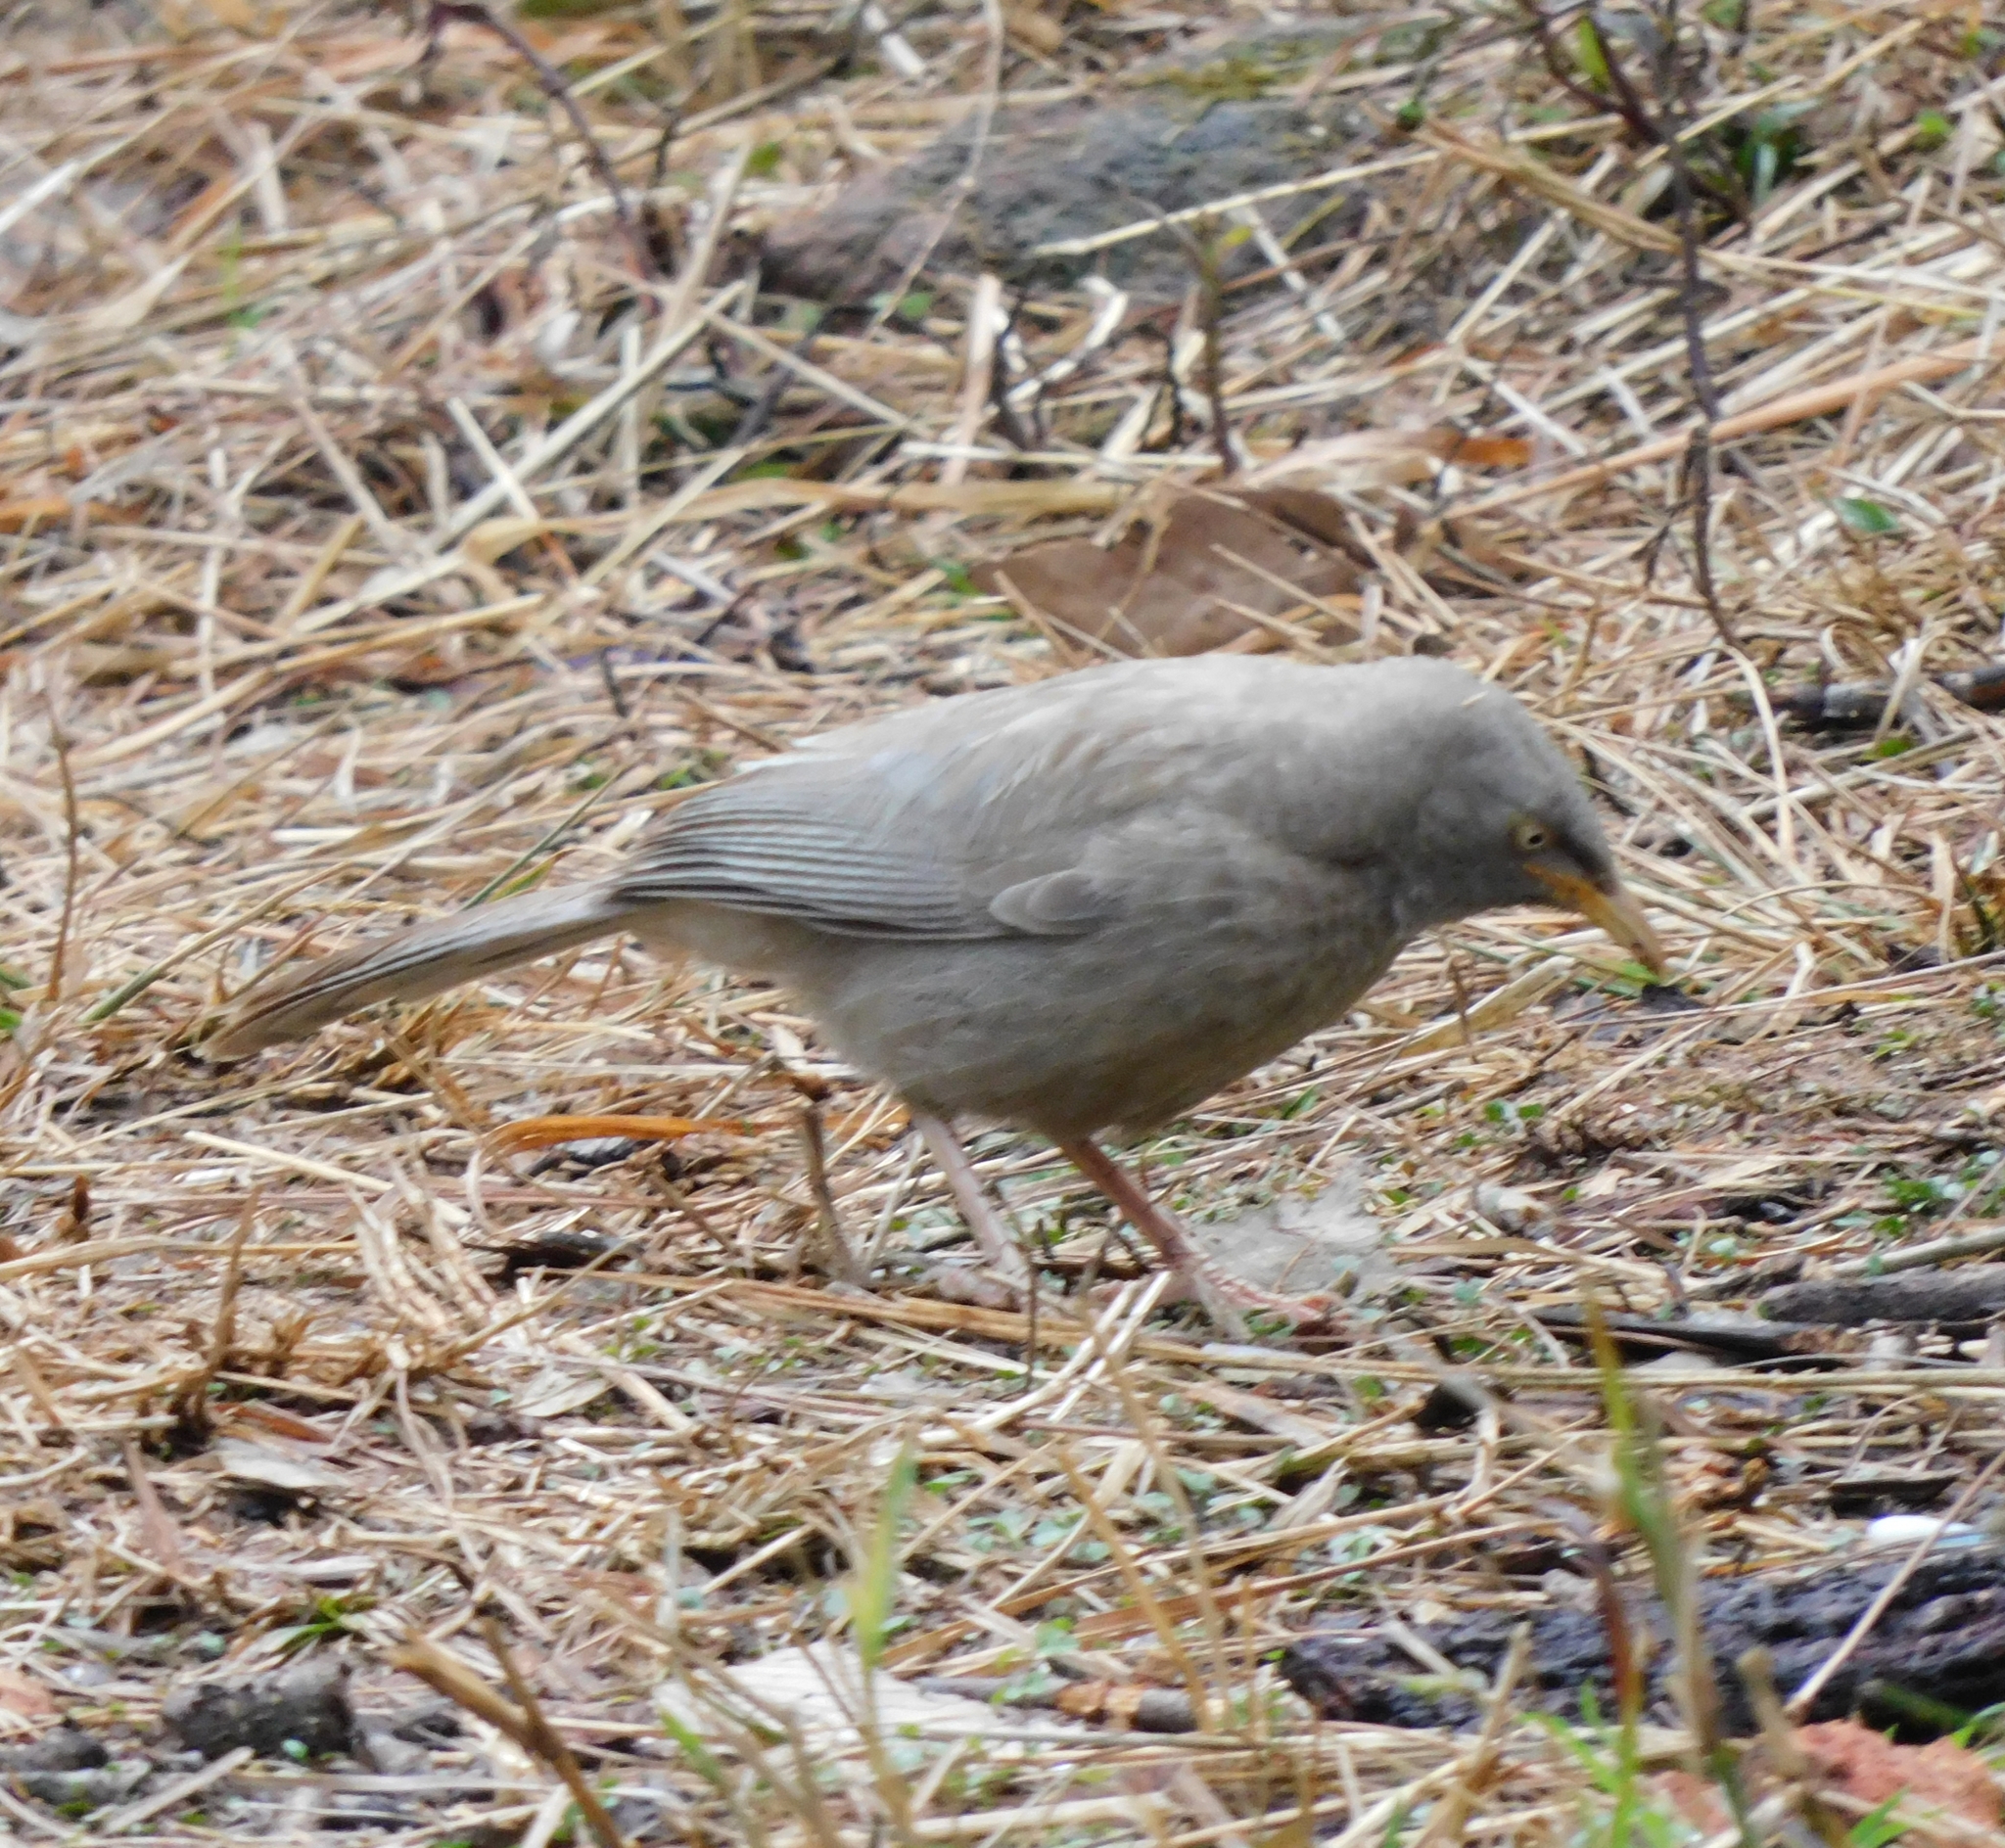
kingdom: Animalia
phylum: Chordata
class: Aves
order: Passeriformes
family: Leiothrichidae
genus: Turdoides
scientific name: Turdoides striata
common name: Jungle babbler
